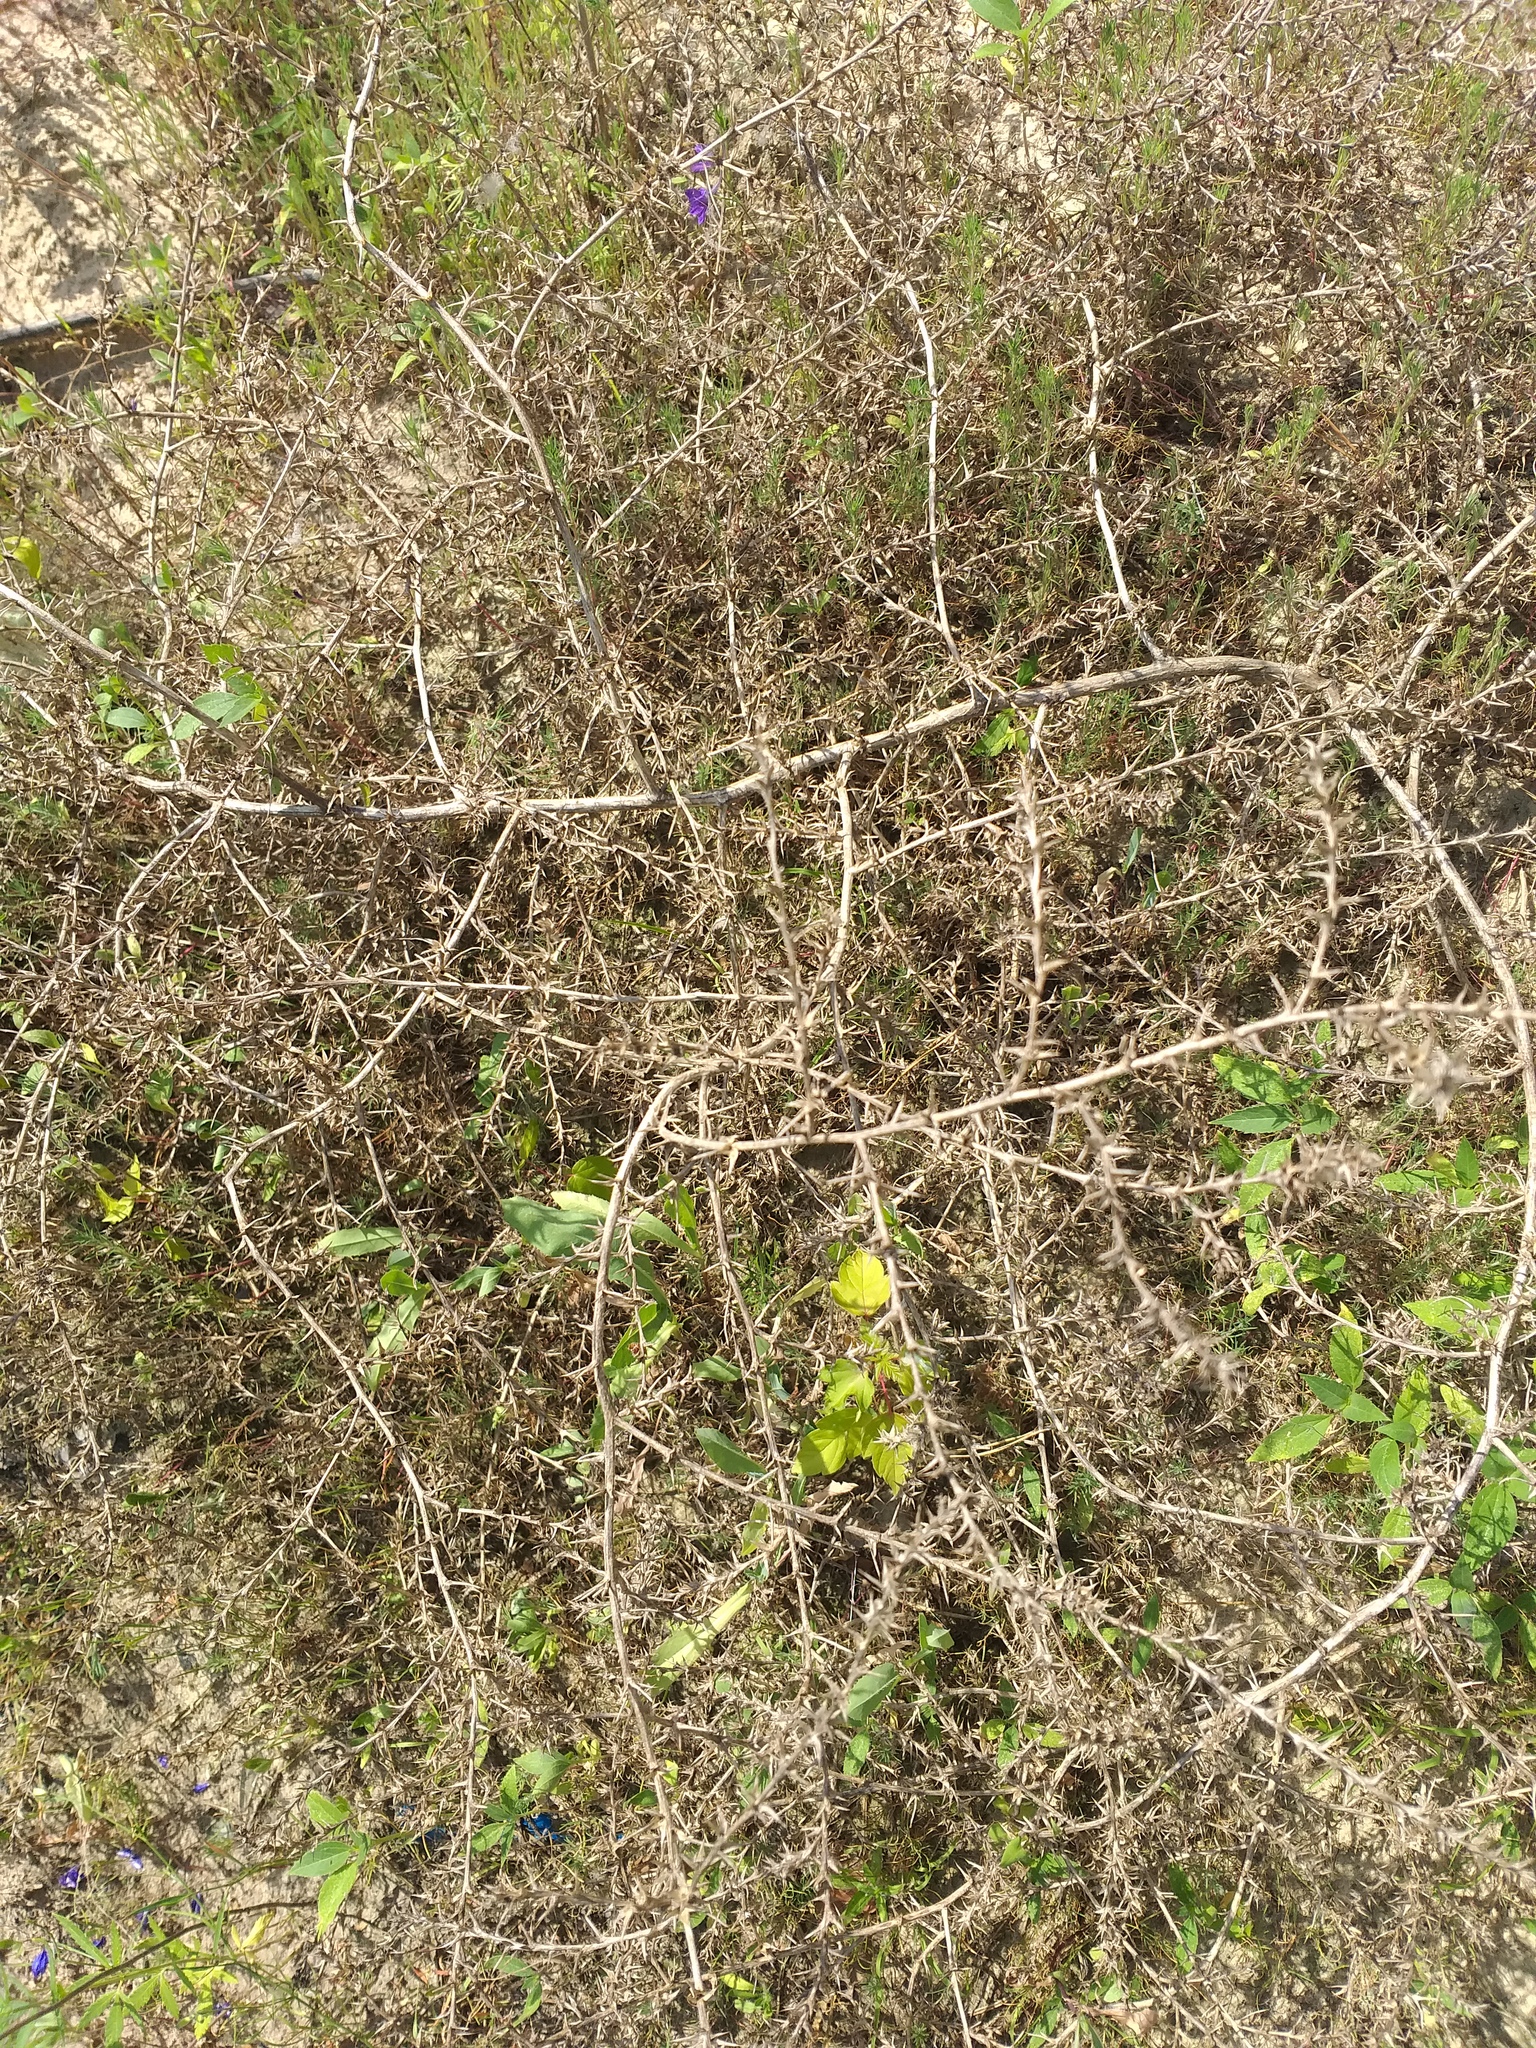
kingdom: Plantae
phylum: Tracheophyta
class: Magnoliopsida
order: Caryophyllales
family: Amaranthaceae
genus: Salsola
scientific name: Salsola tragus
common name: Prickly russian thistle
